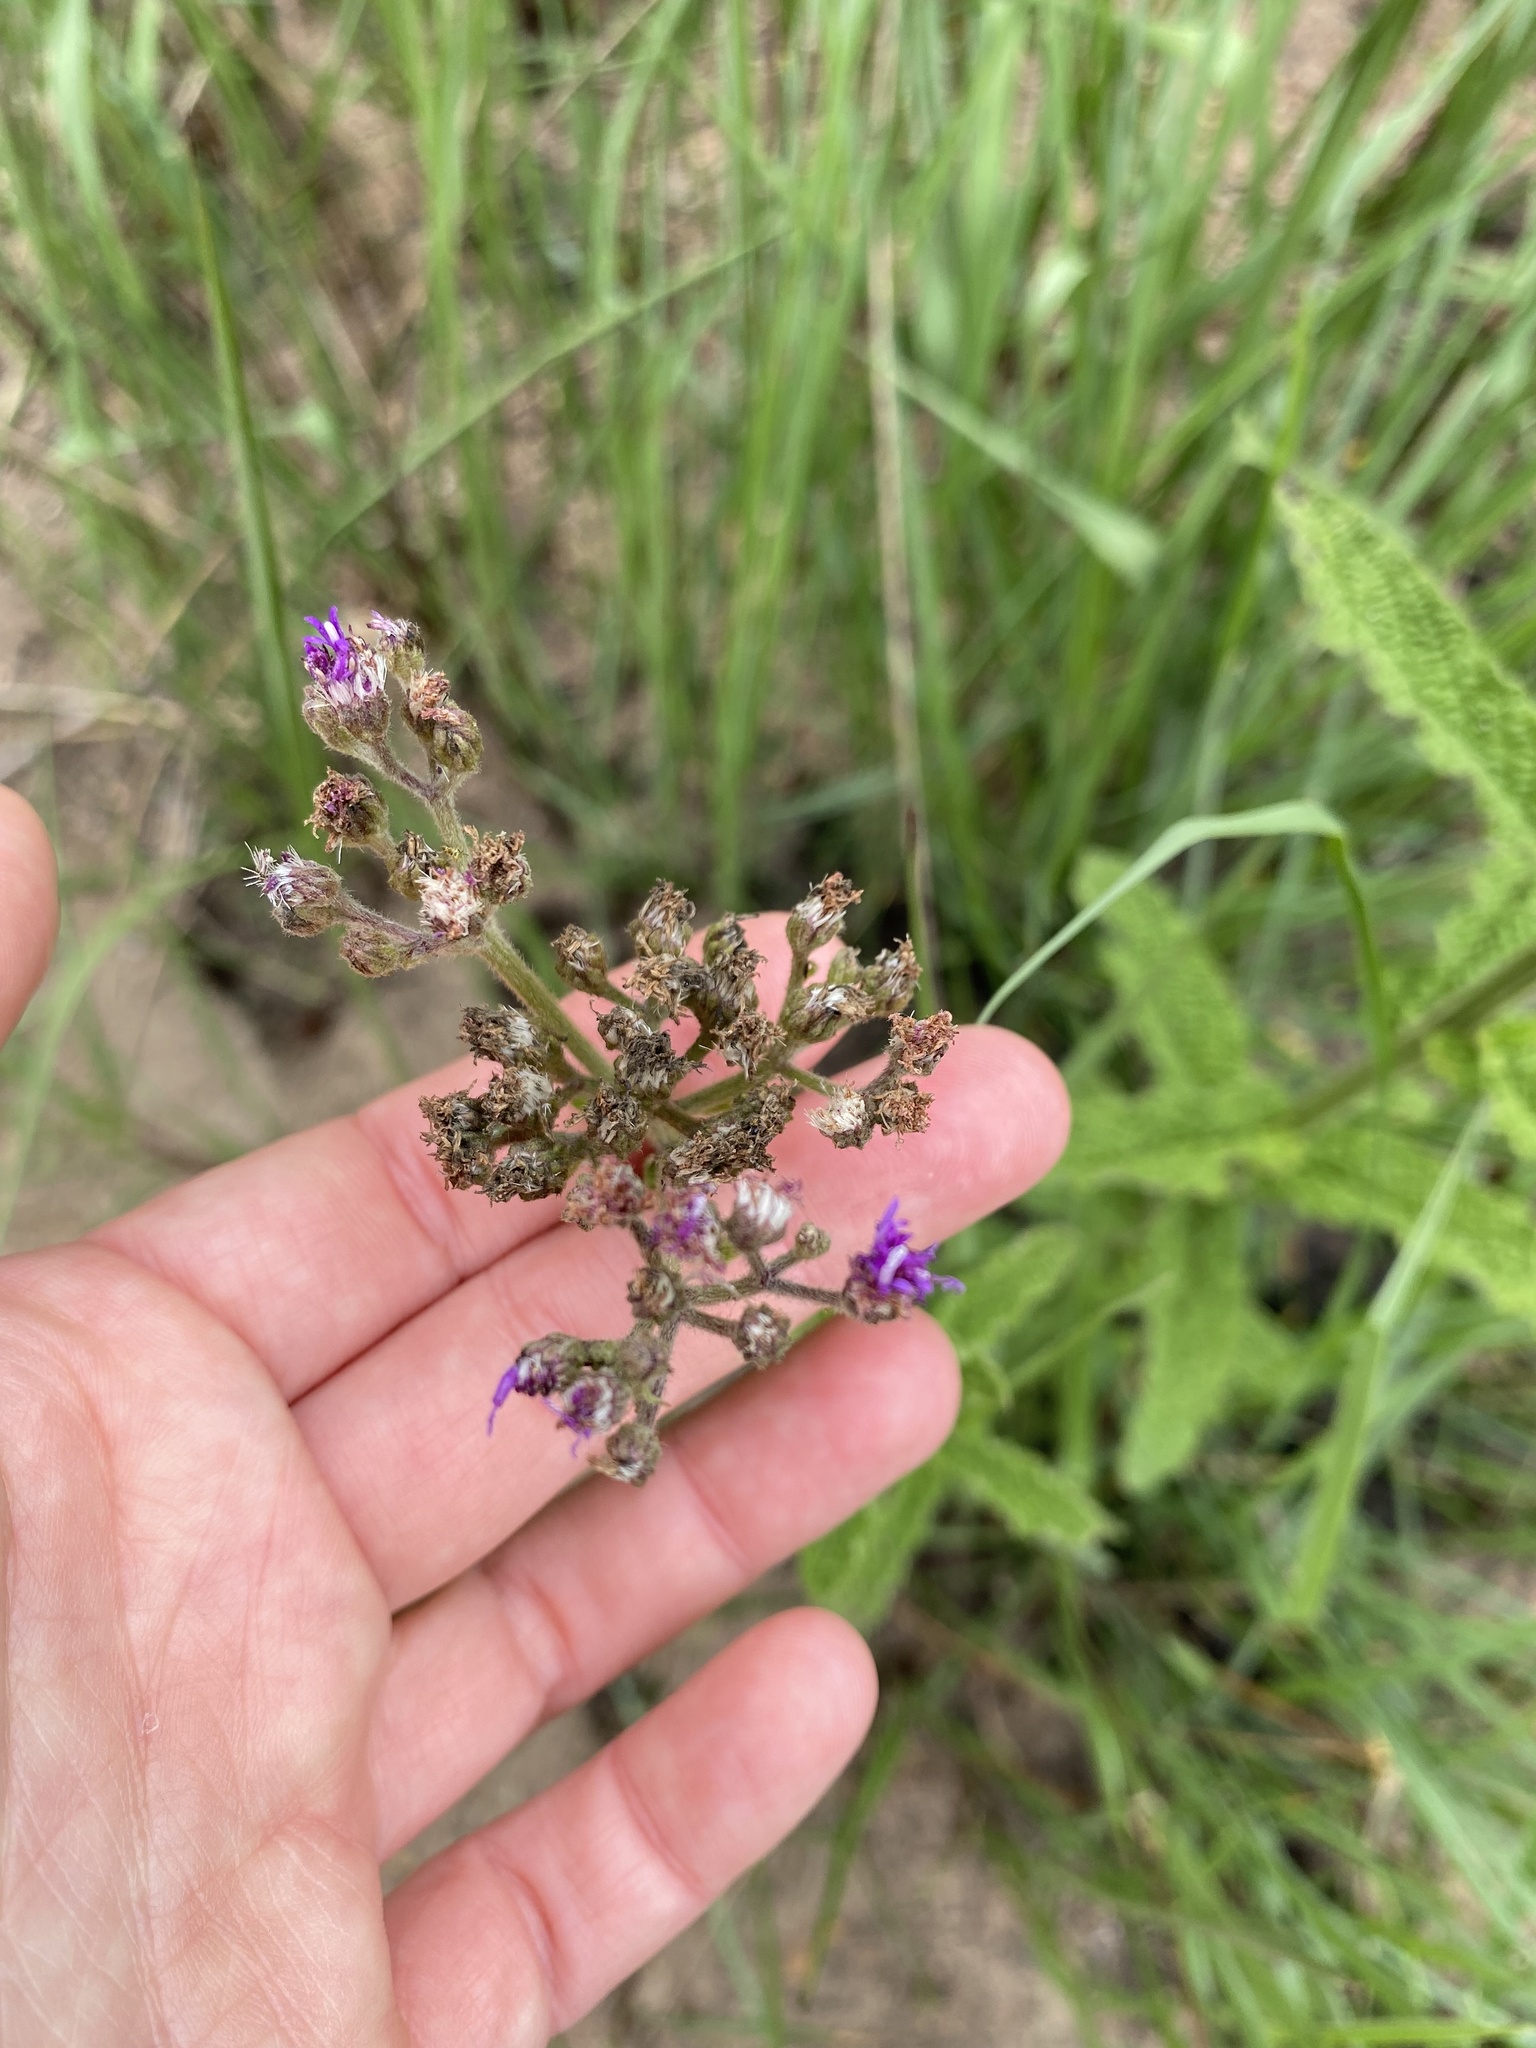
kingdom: Plantae
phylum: Tracheophyta
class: Magnoliopsida
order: Asterales
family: Asteraceae
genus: Hilliardiella
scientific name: Hilliardiella hirsuta
